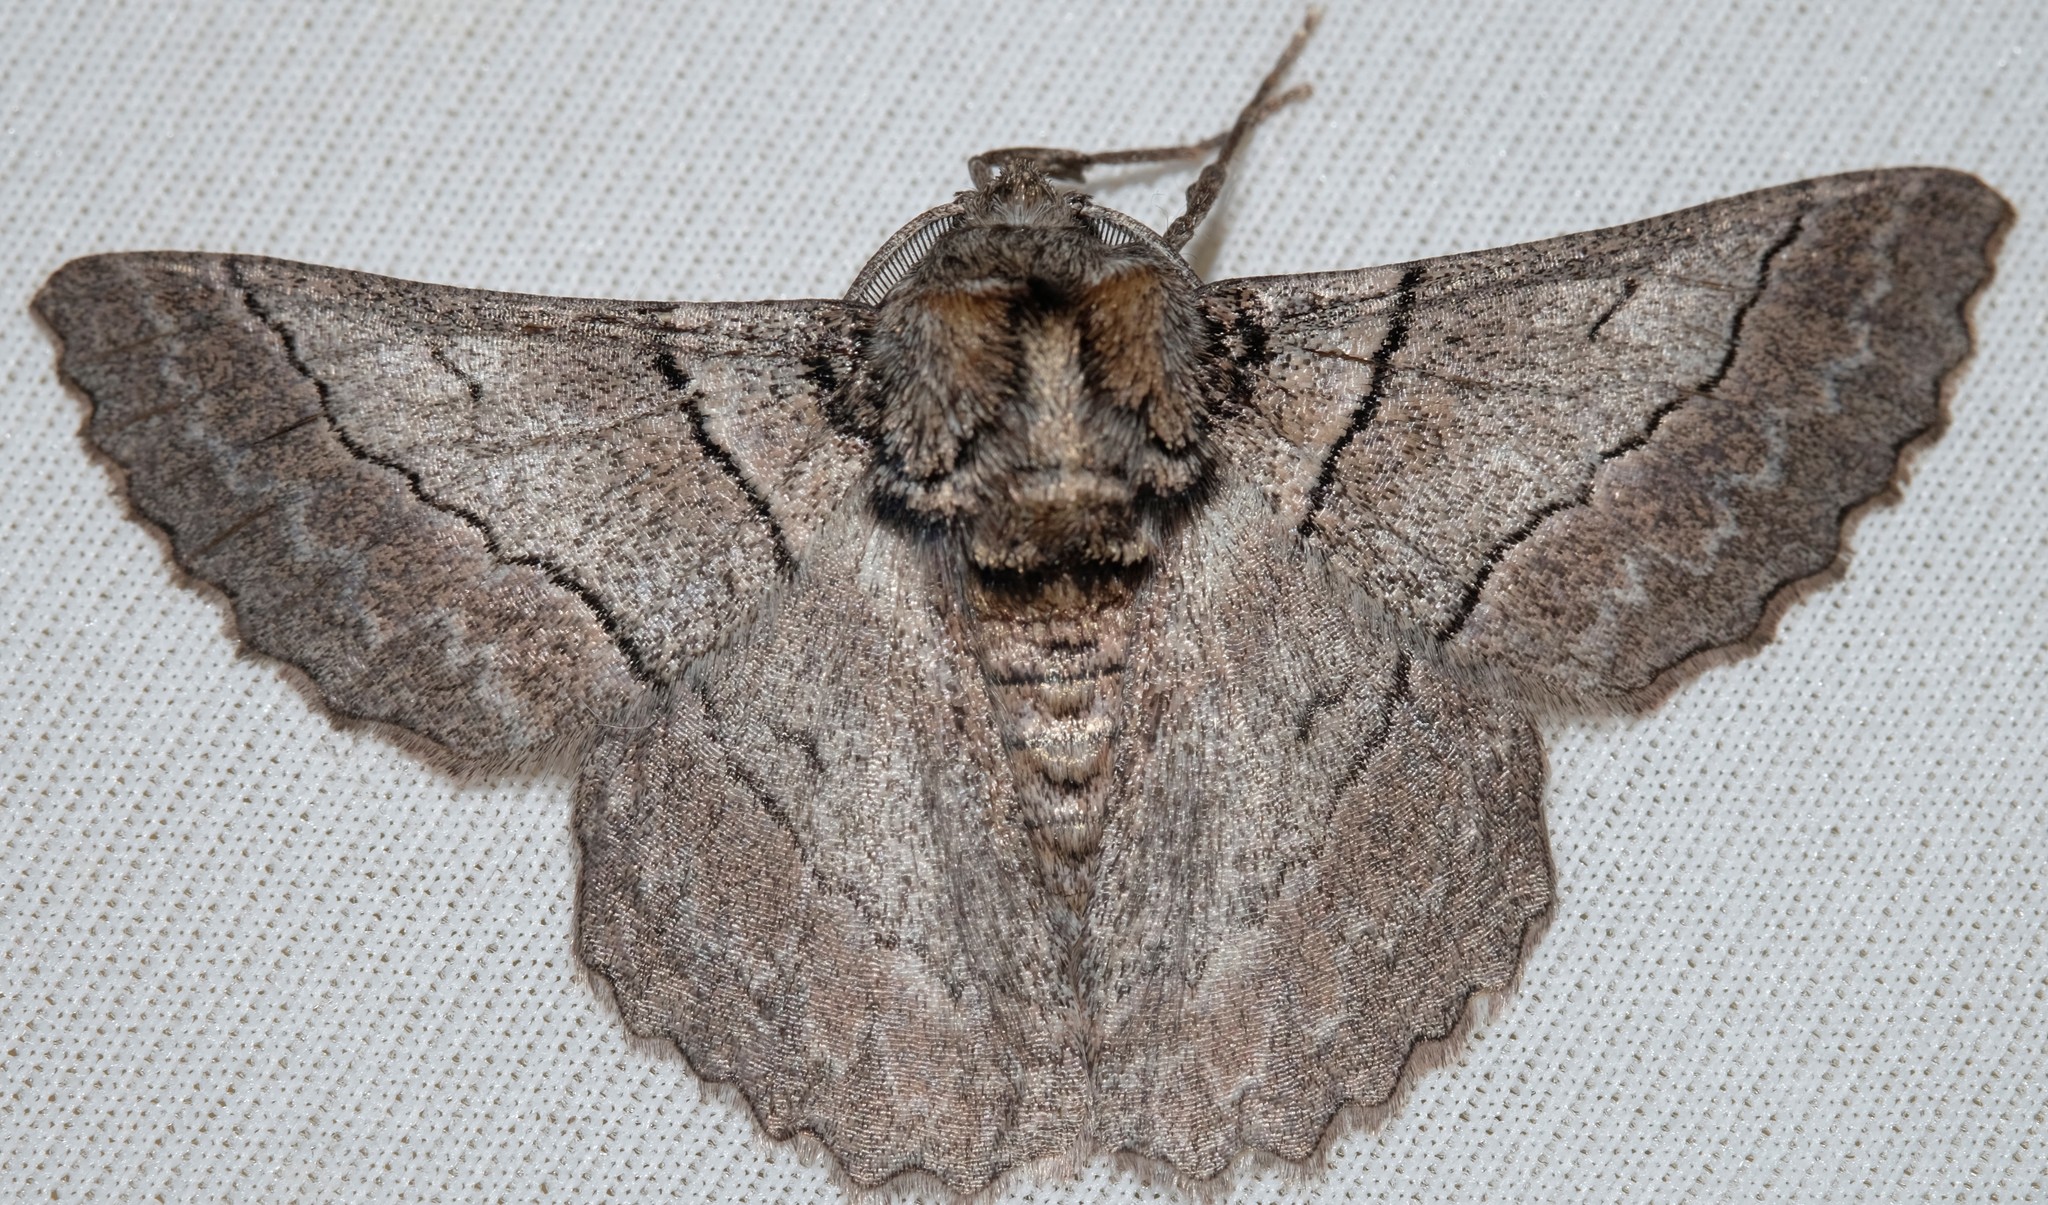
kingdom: Animalia
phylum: Arthropoda
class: Insecta
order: Lepidoptera
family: Geometridae
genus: Hypobapta
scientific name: Hypobapta tachyhalotaria
